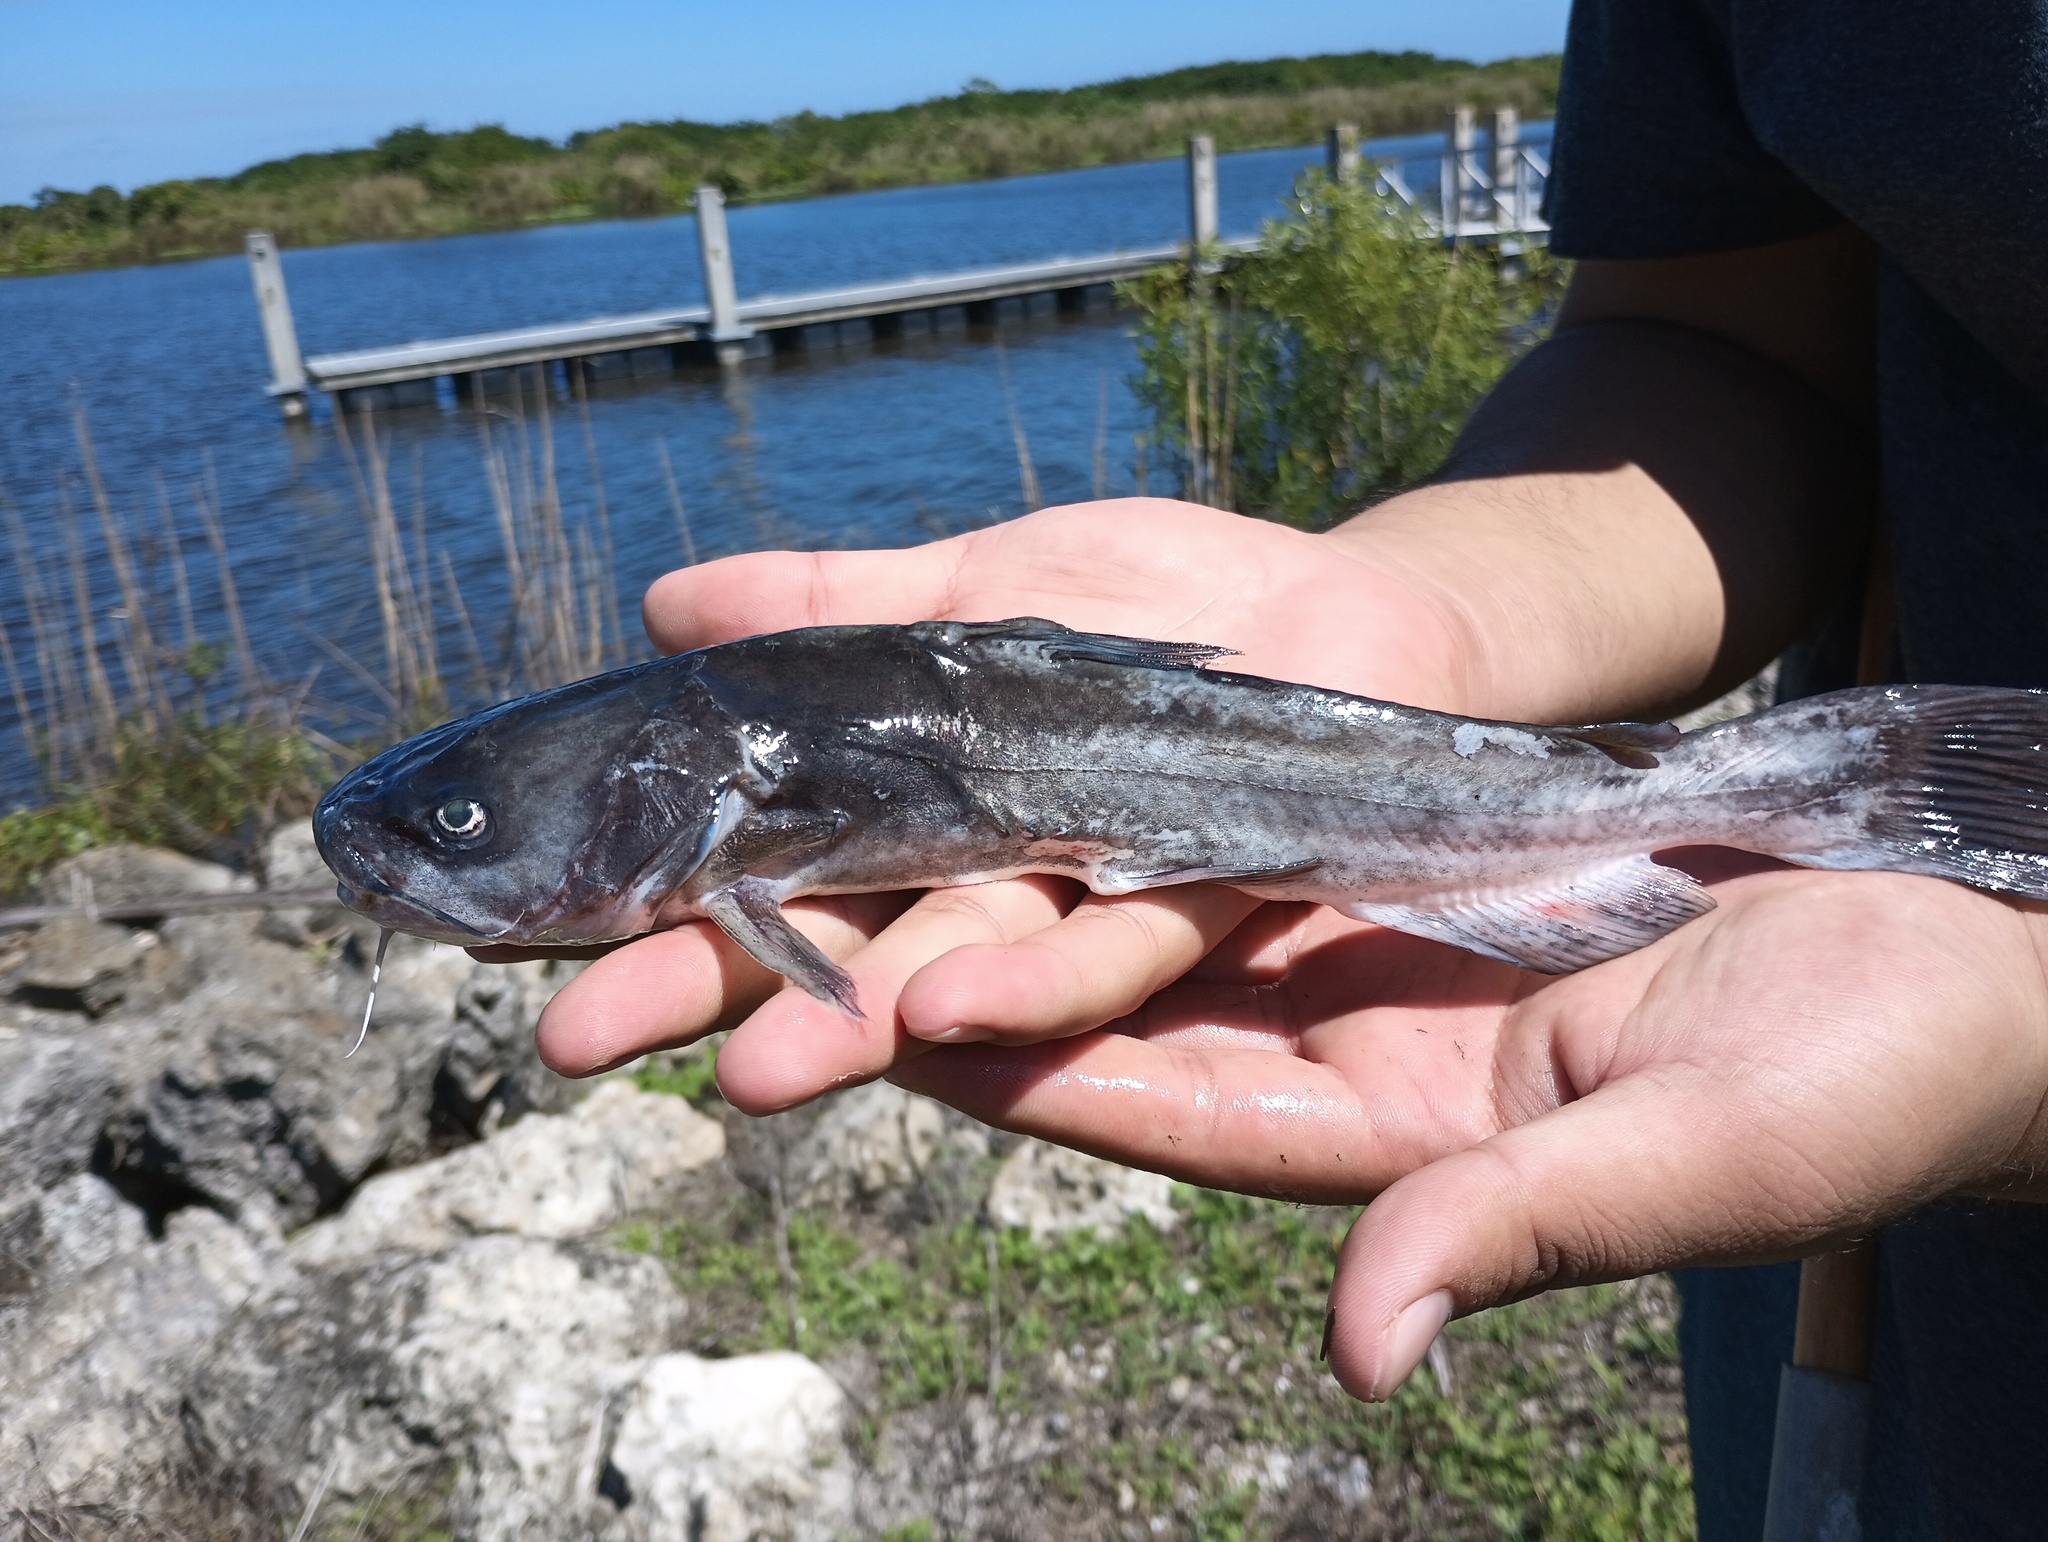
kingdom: Animalia
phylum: Chordata
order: Siluriformes
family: Ictaluridae
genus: Ameiurus
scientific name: Ameiurus catus
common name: White catfish
